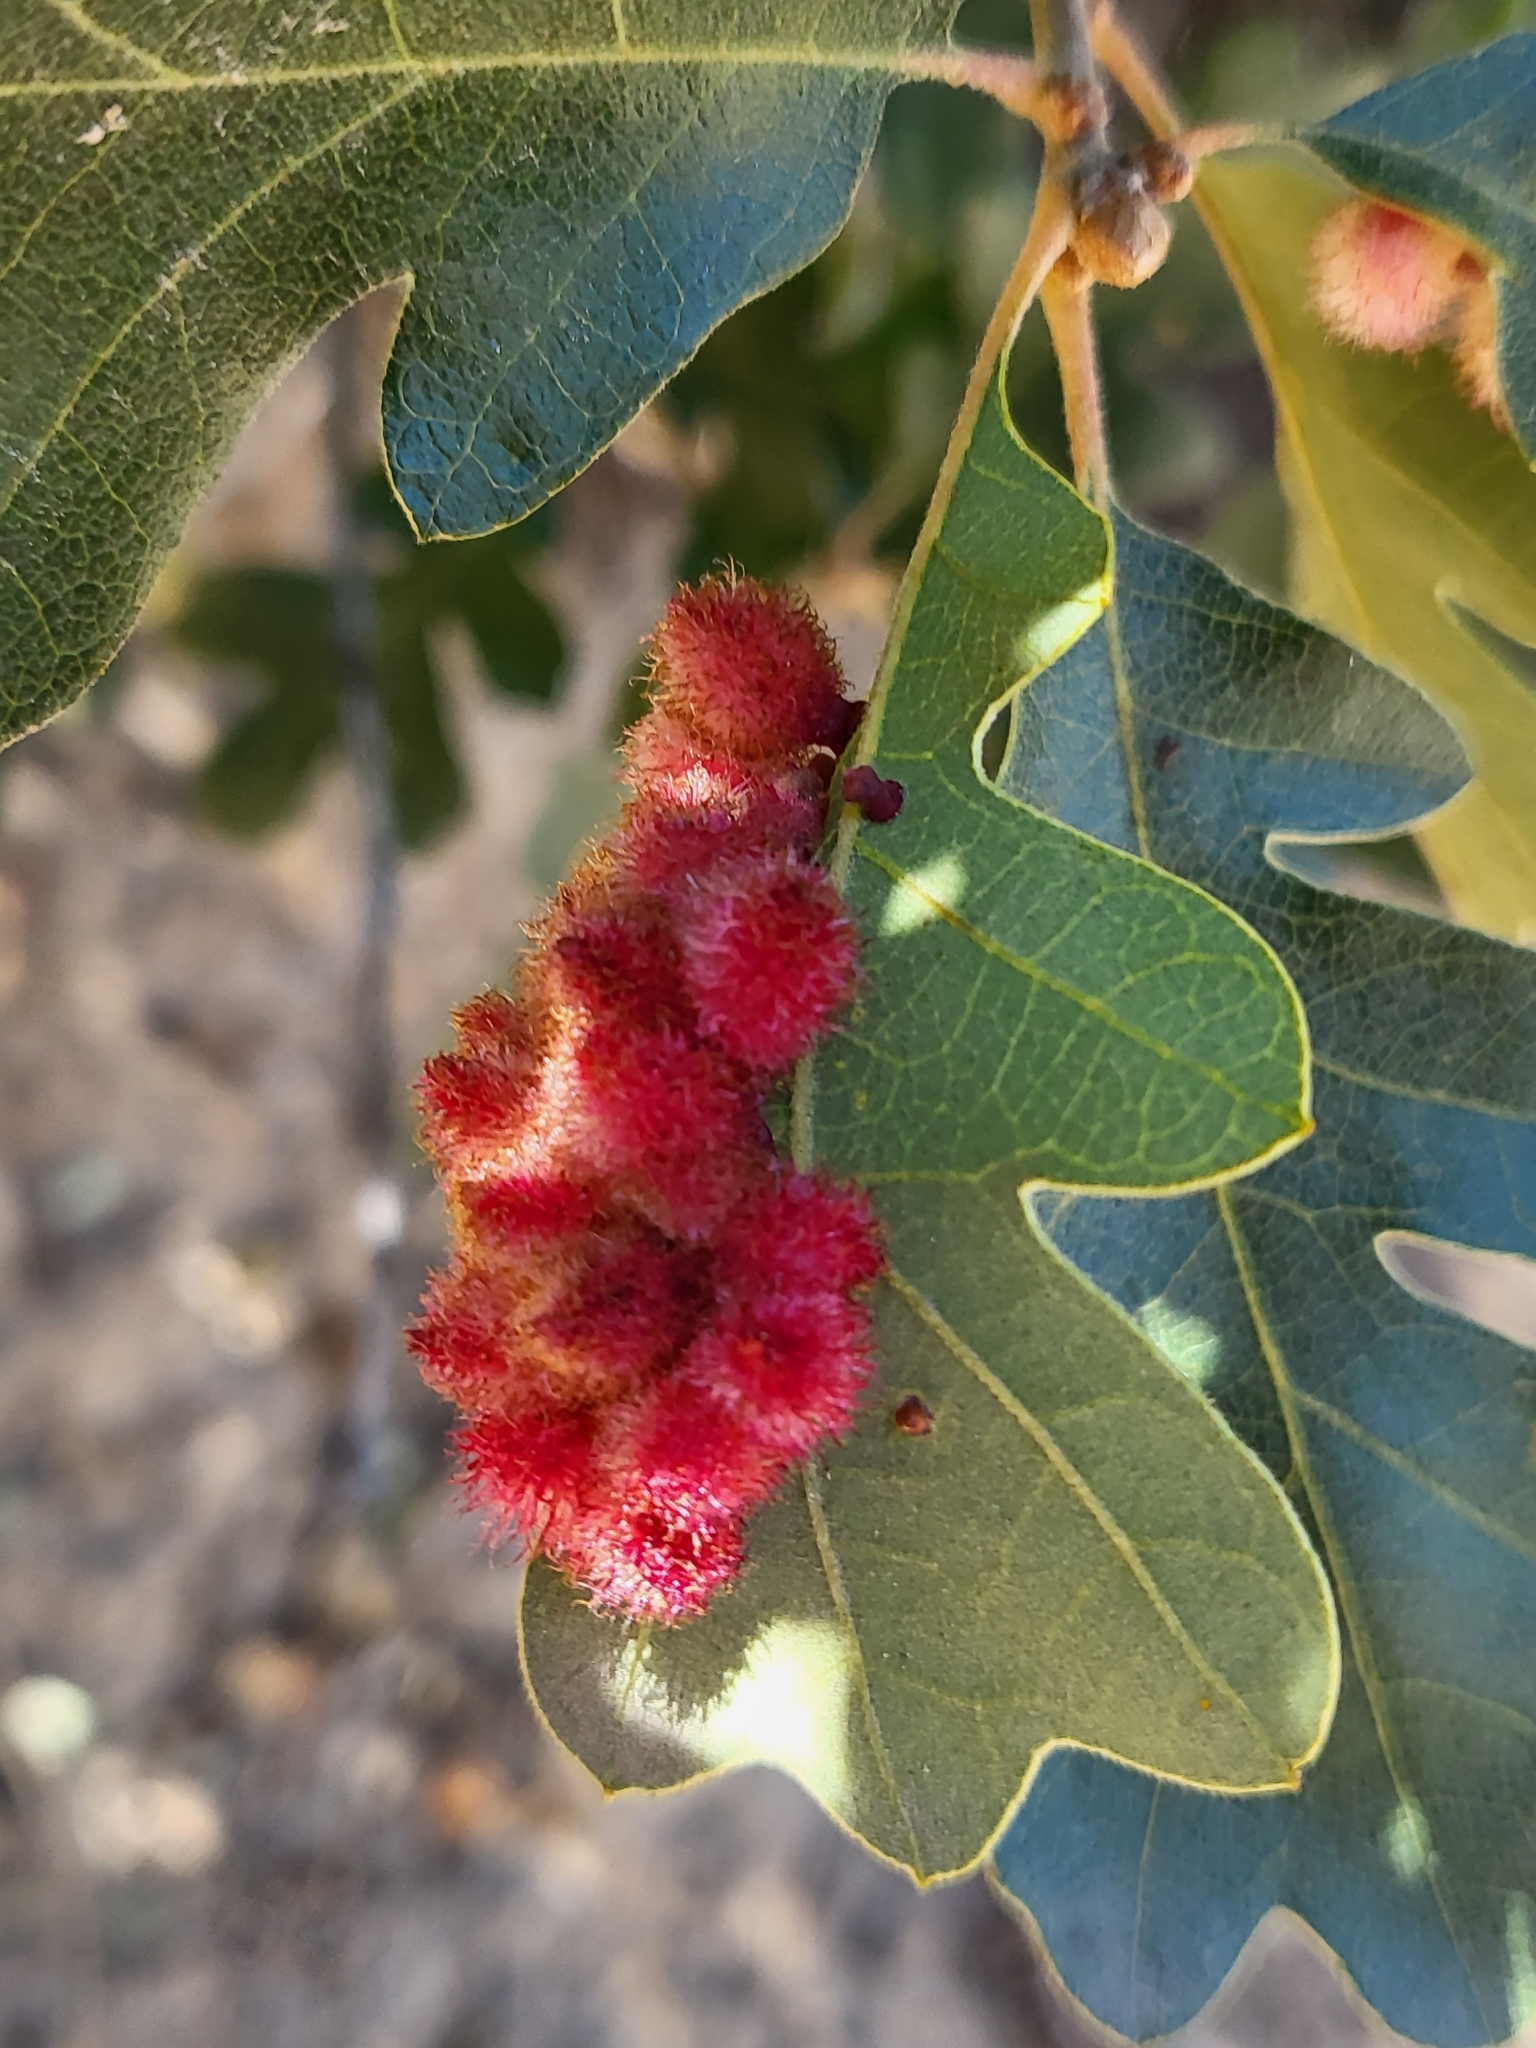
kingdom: Animalia
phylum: Arthropoda
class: Insecta
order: Hymenoptera
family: Cynipidae
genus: Andricus
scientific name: Andricus
